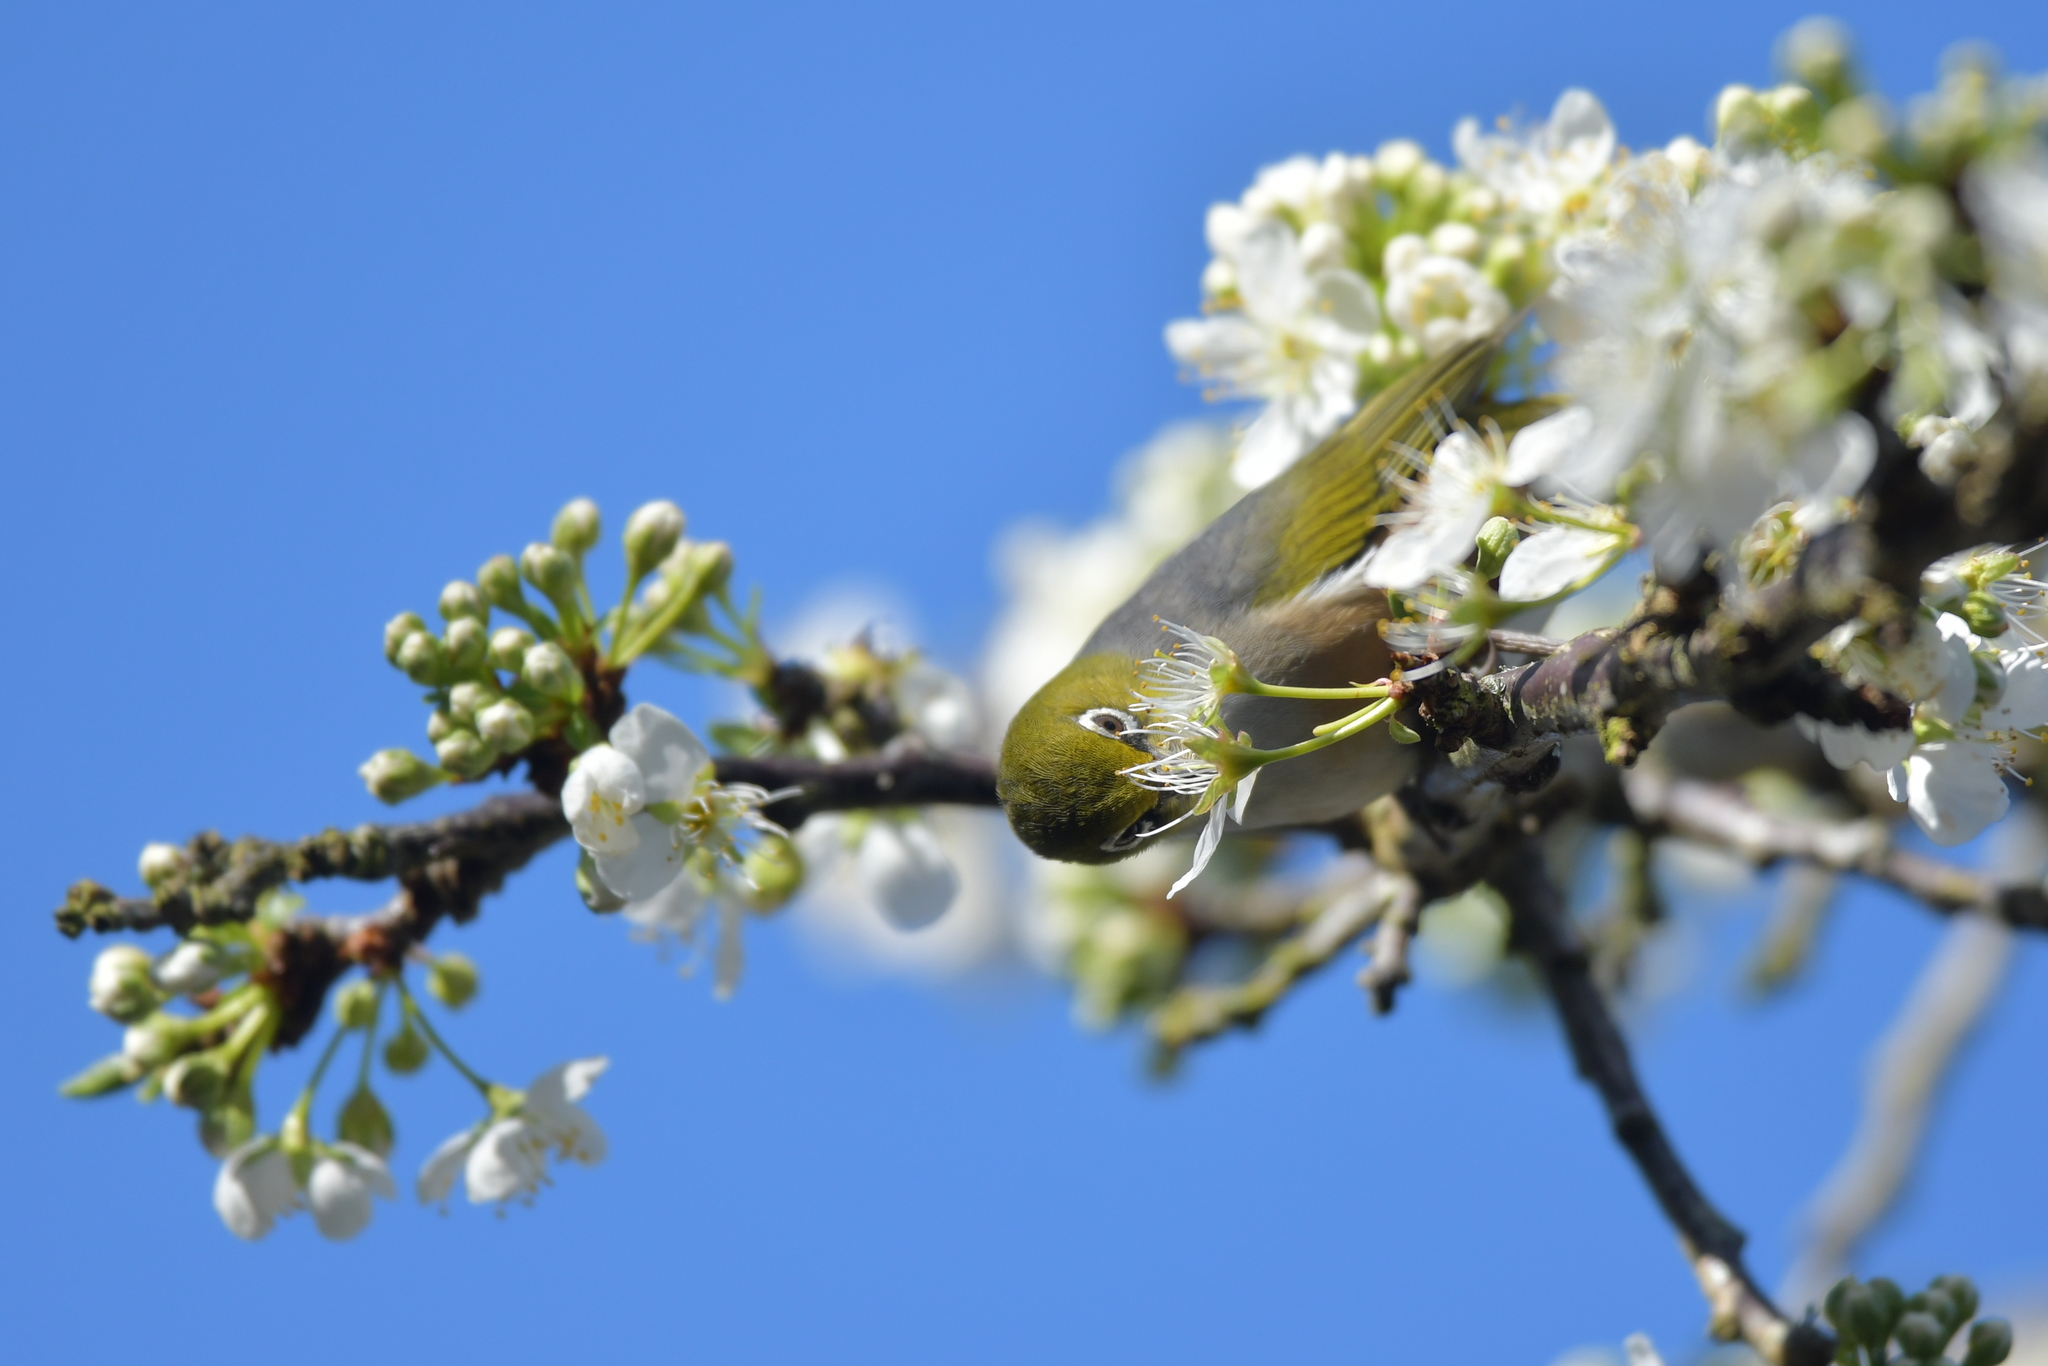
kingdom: Animalia
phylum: Chordata
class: Aves
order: Passeriformes
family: Zosteropidae
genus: Zosterops
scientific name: Zosterops lateralis
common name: Silvereye
